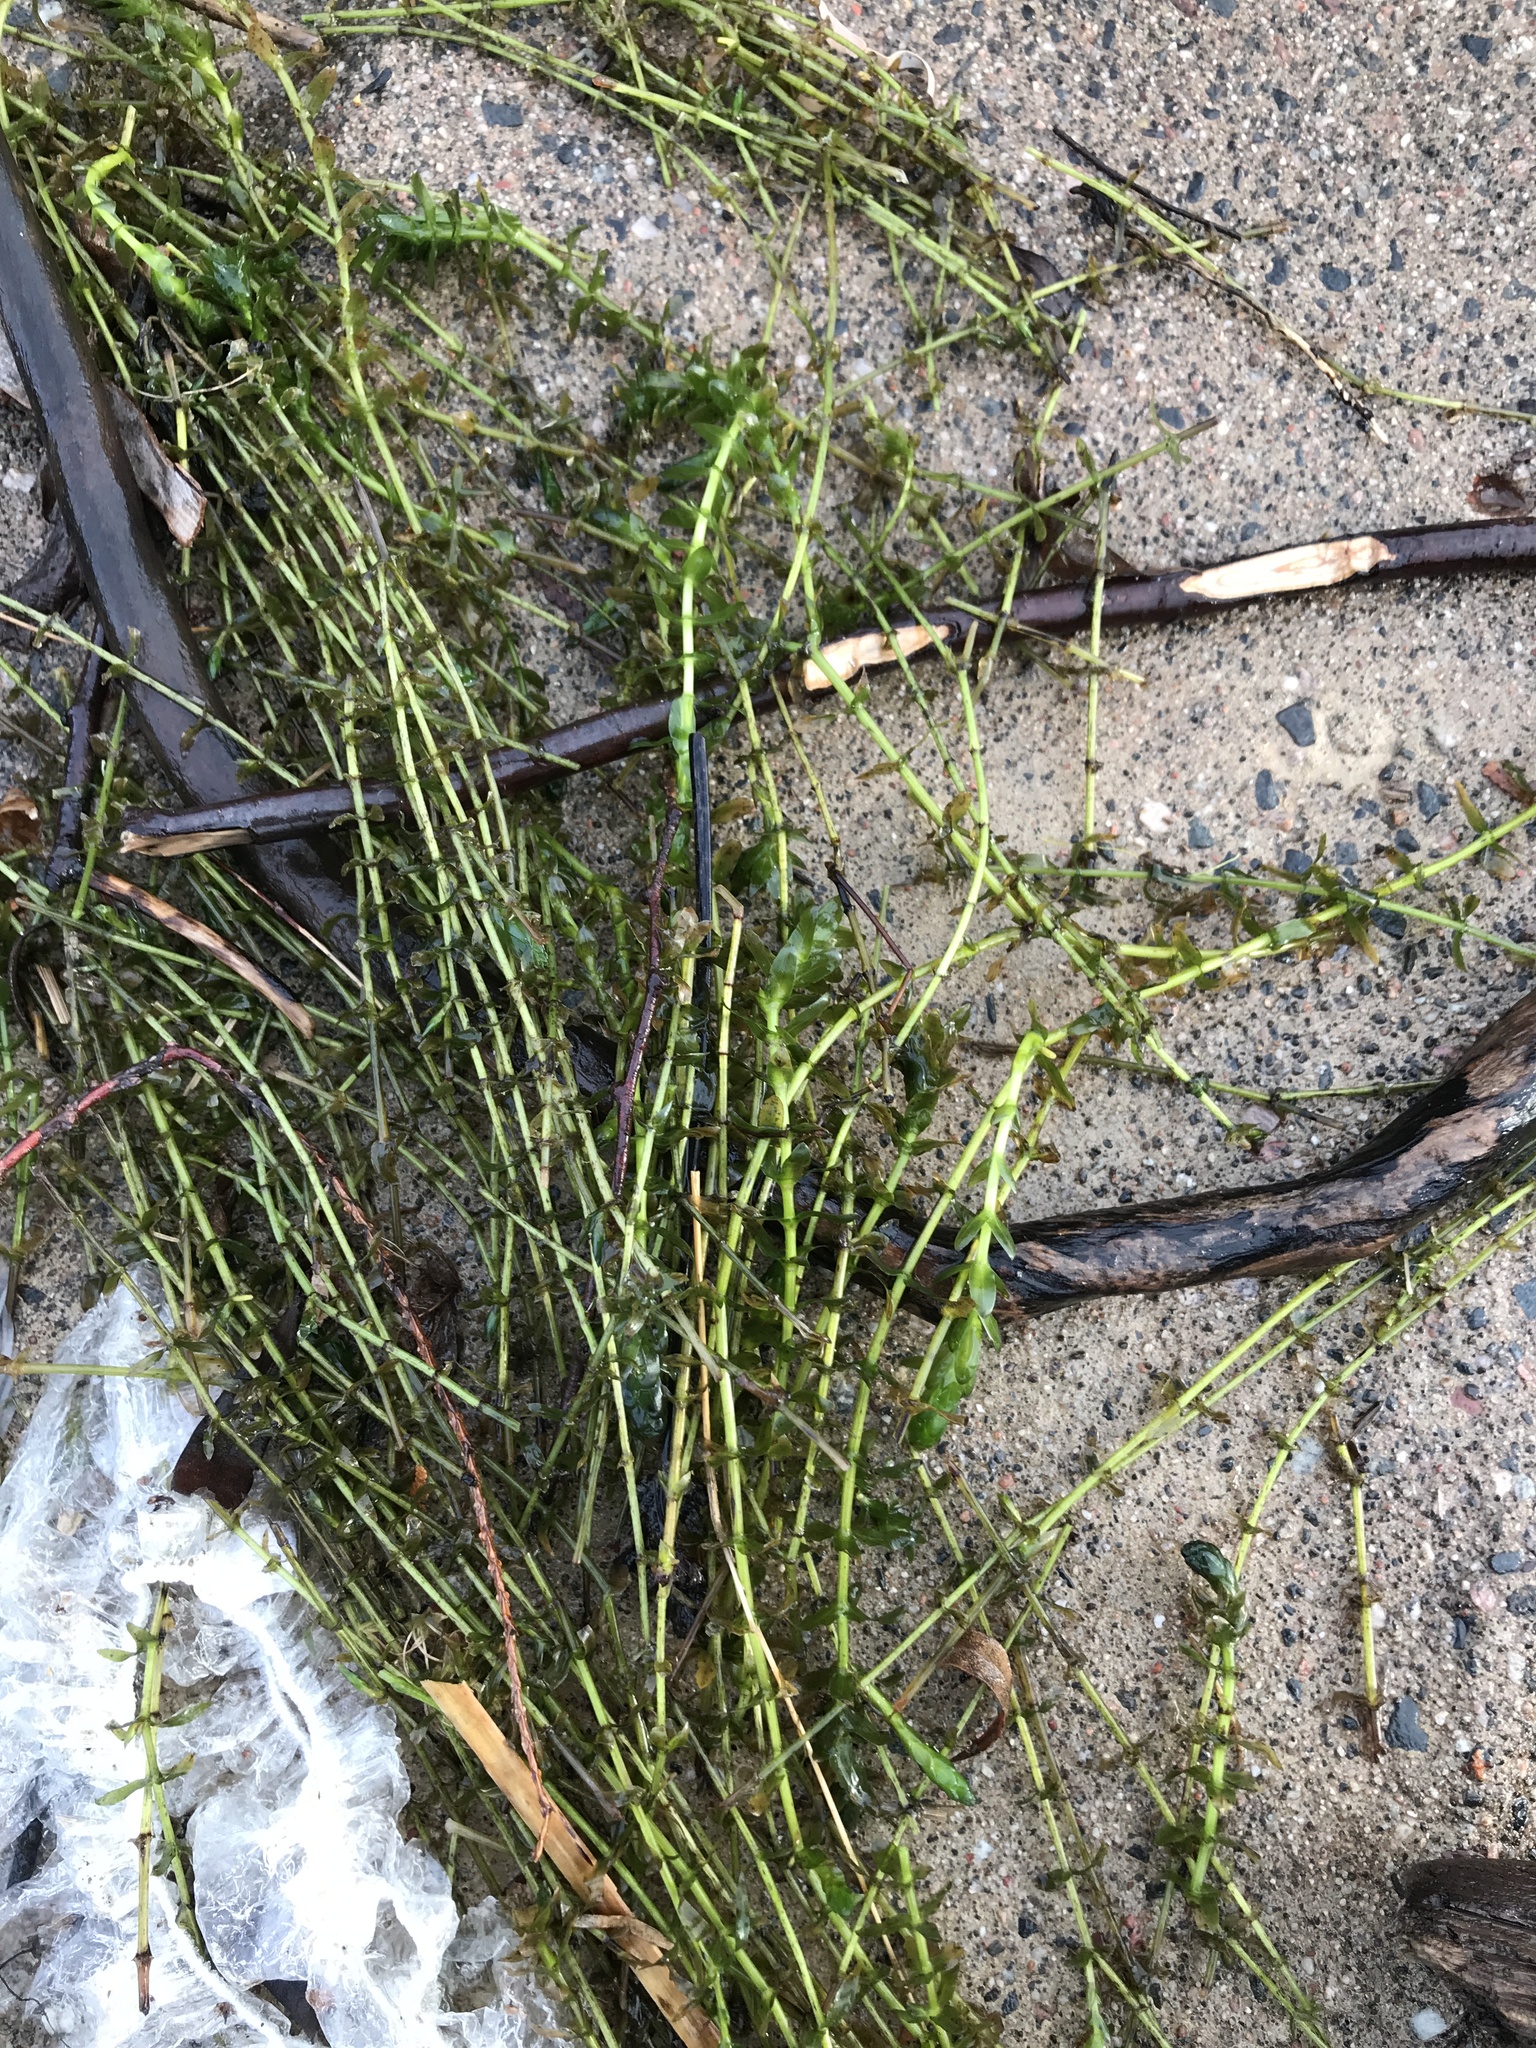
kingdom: Plantae
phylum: Tracheophyta
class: Liliopsida
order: Alismatales
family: Hydrocharitaceae
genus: Elodea
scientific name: Elodea canadensis
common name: Canadian waterweed
